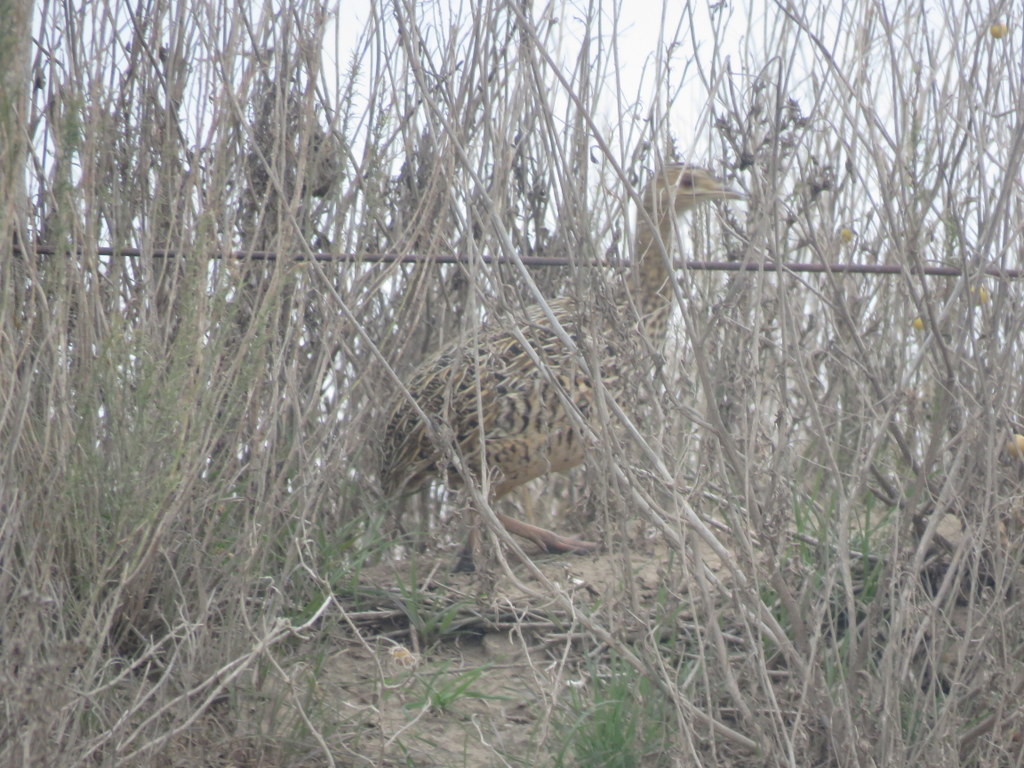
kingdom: Animalia
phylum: Chordata
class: Aves
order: Tinamiformes
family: Tinamidae
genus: Nothura
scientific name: Nothura maculosa
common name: Spotted nothura
